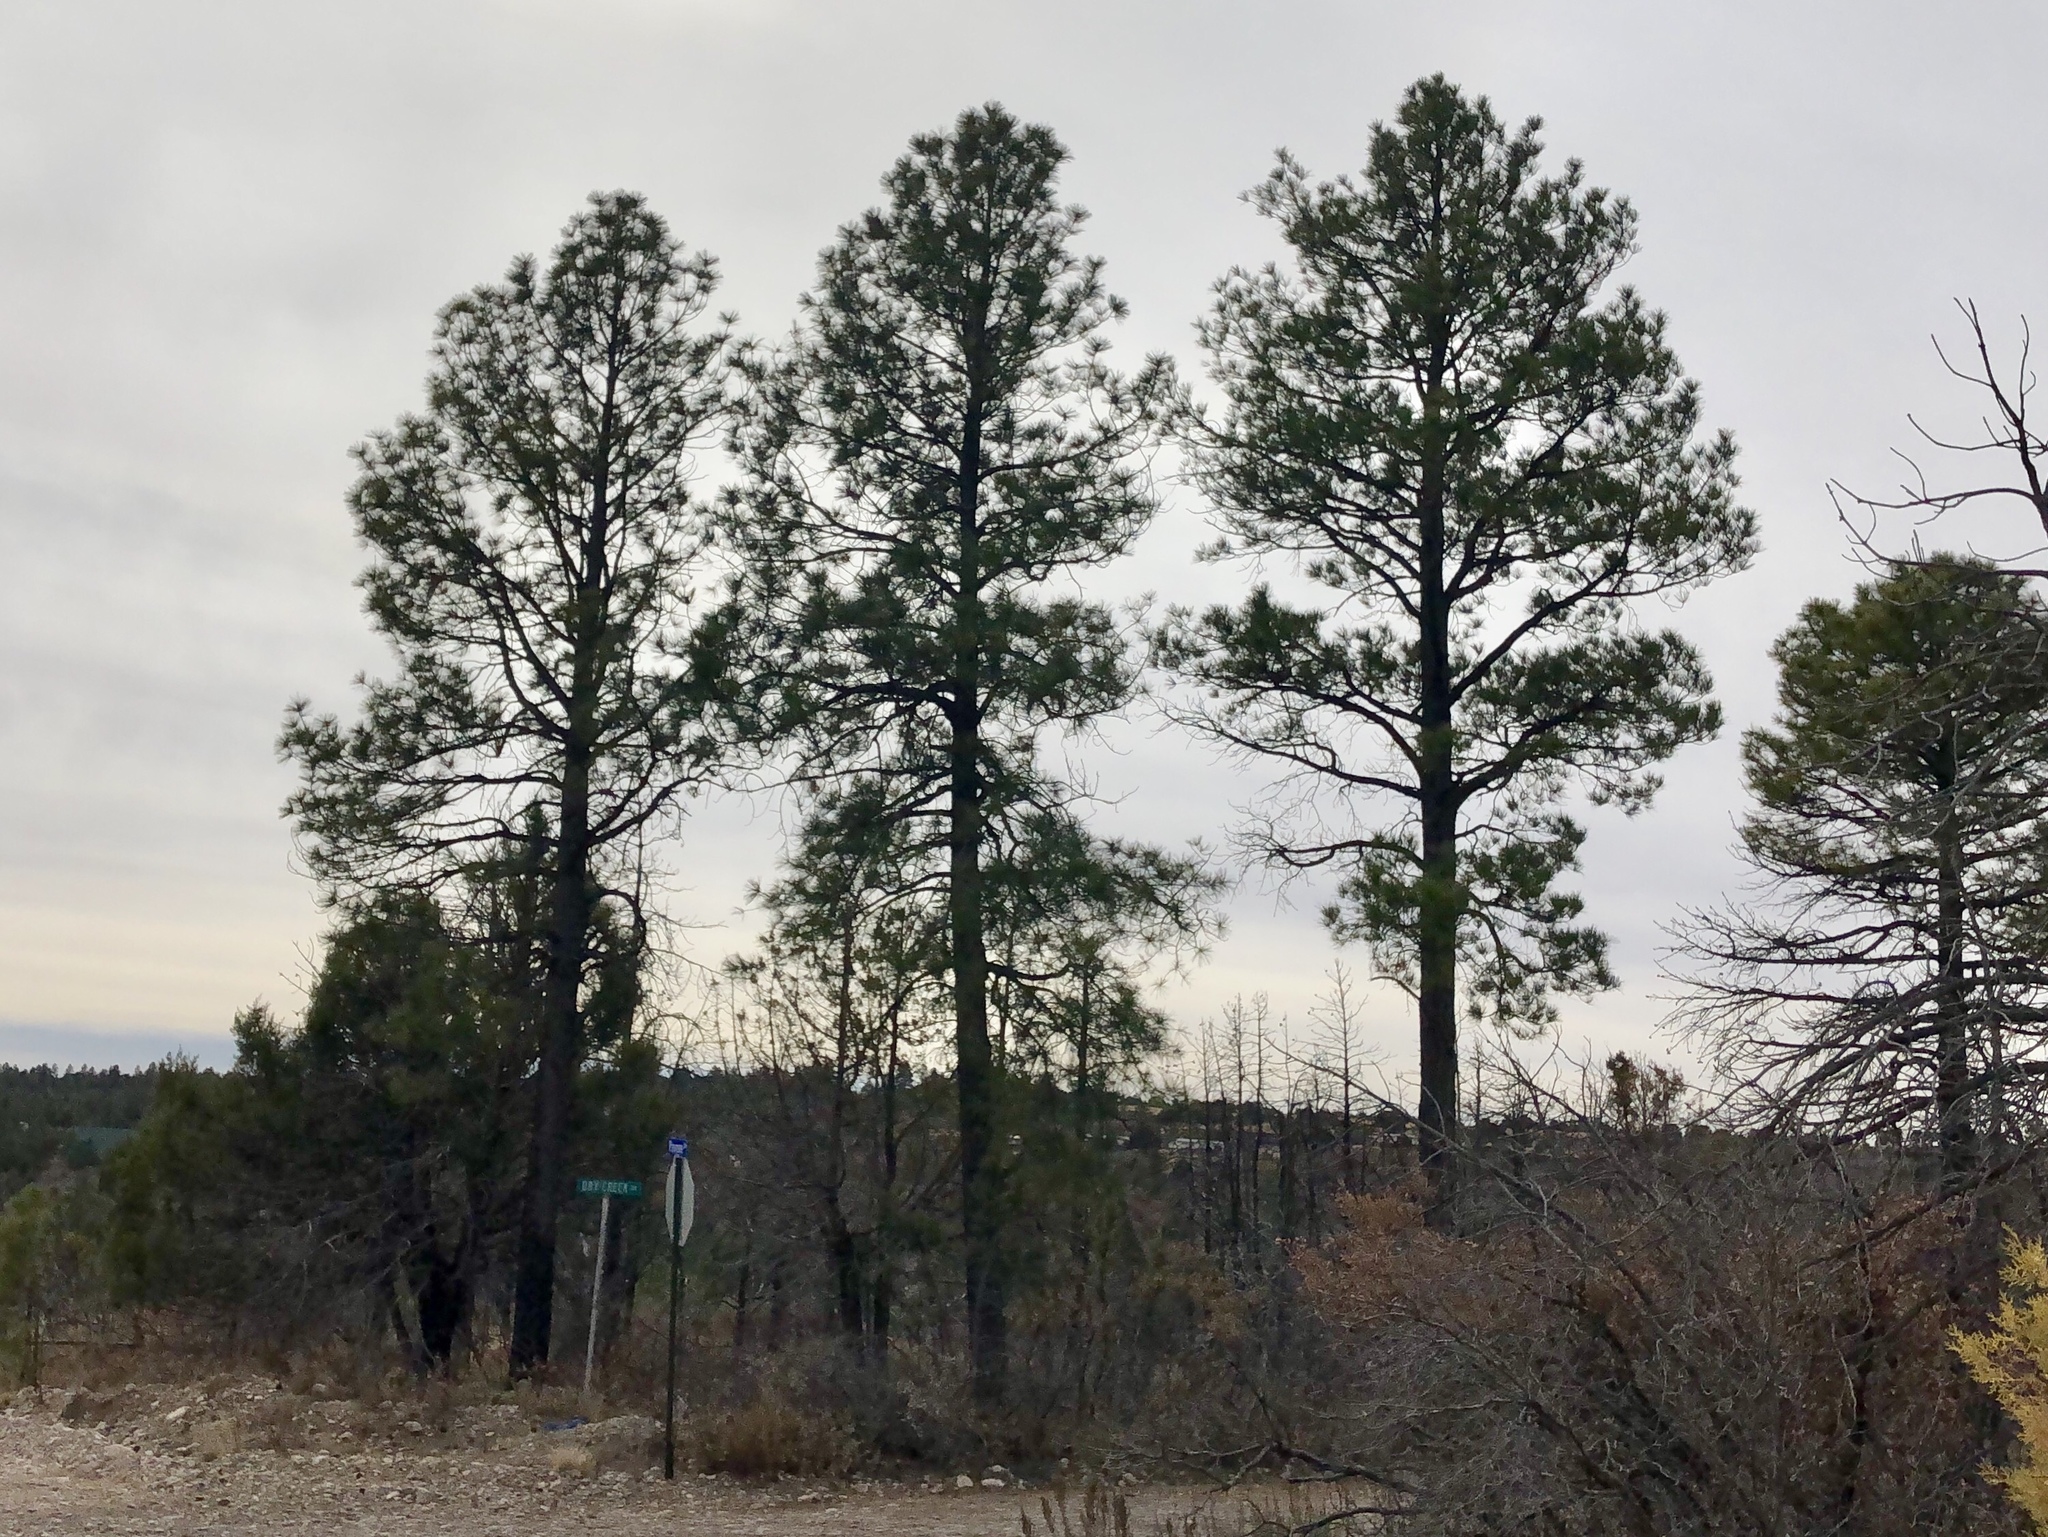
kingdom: Plantae
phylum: Tracheophyta
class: Pinopsida
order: Pinales
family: Pinaceae
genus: Pinus
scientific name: Pinus ponderosa
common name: Western yellow-pine
